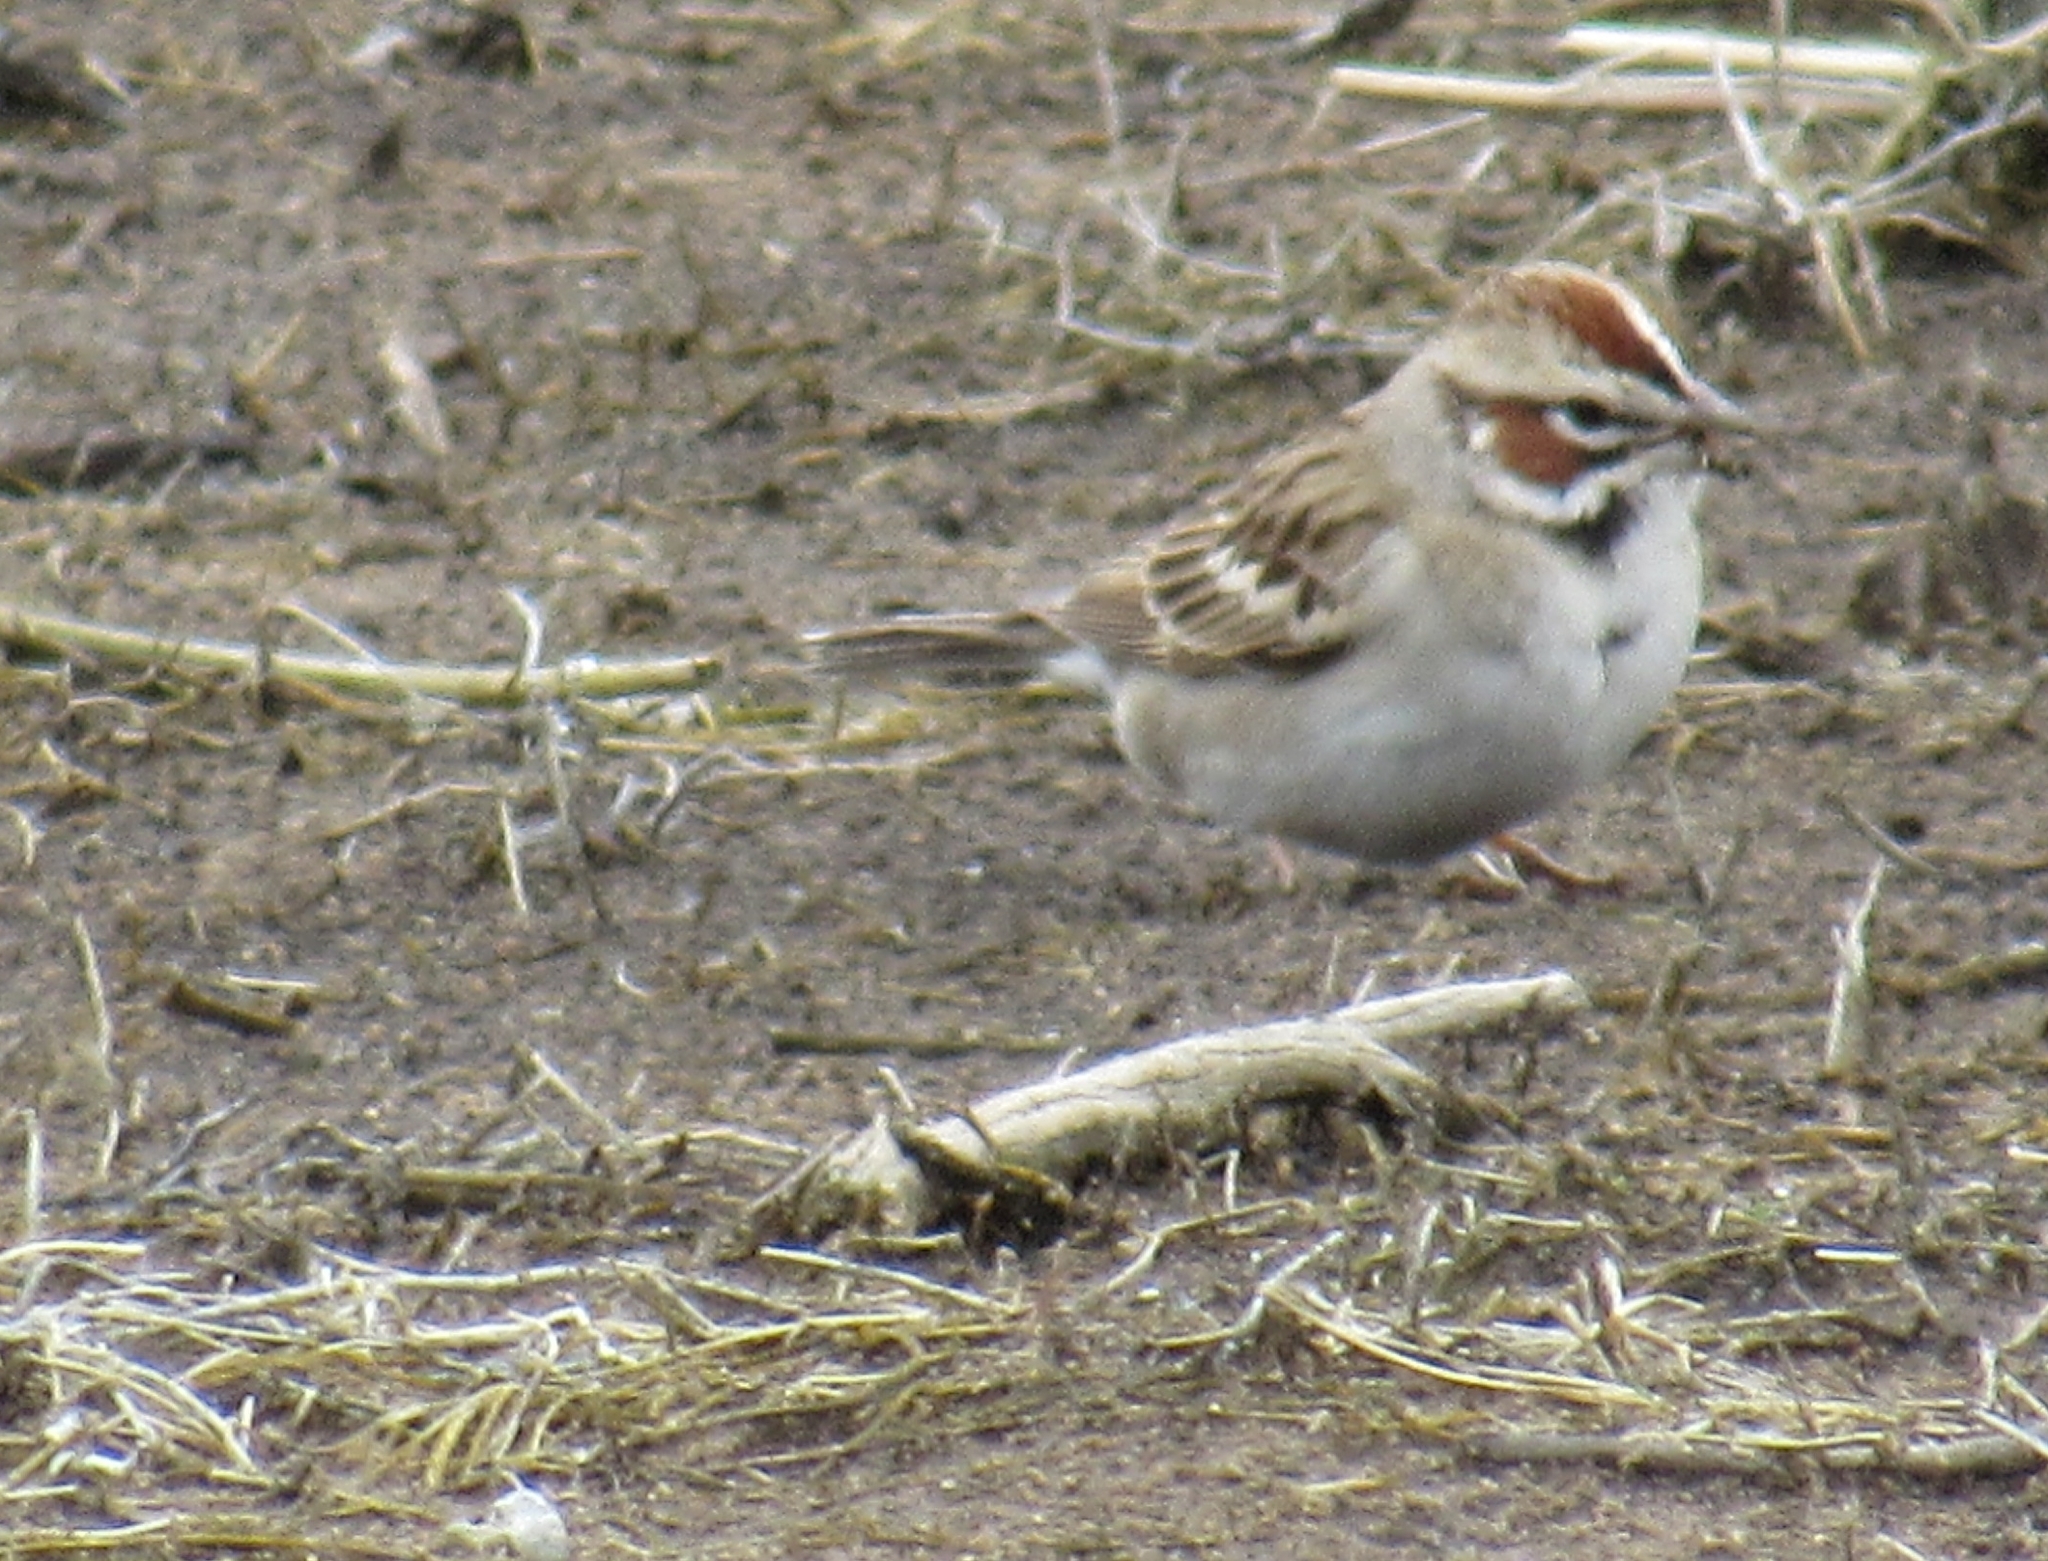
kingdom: Animalia
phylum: Chordata
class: Aves
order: Passeriformes
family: Passerellidae
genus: Chondestes
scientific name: Chondestes grammacus
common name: Lark sparrow
